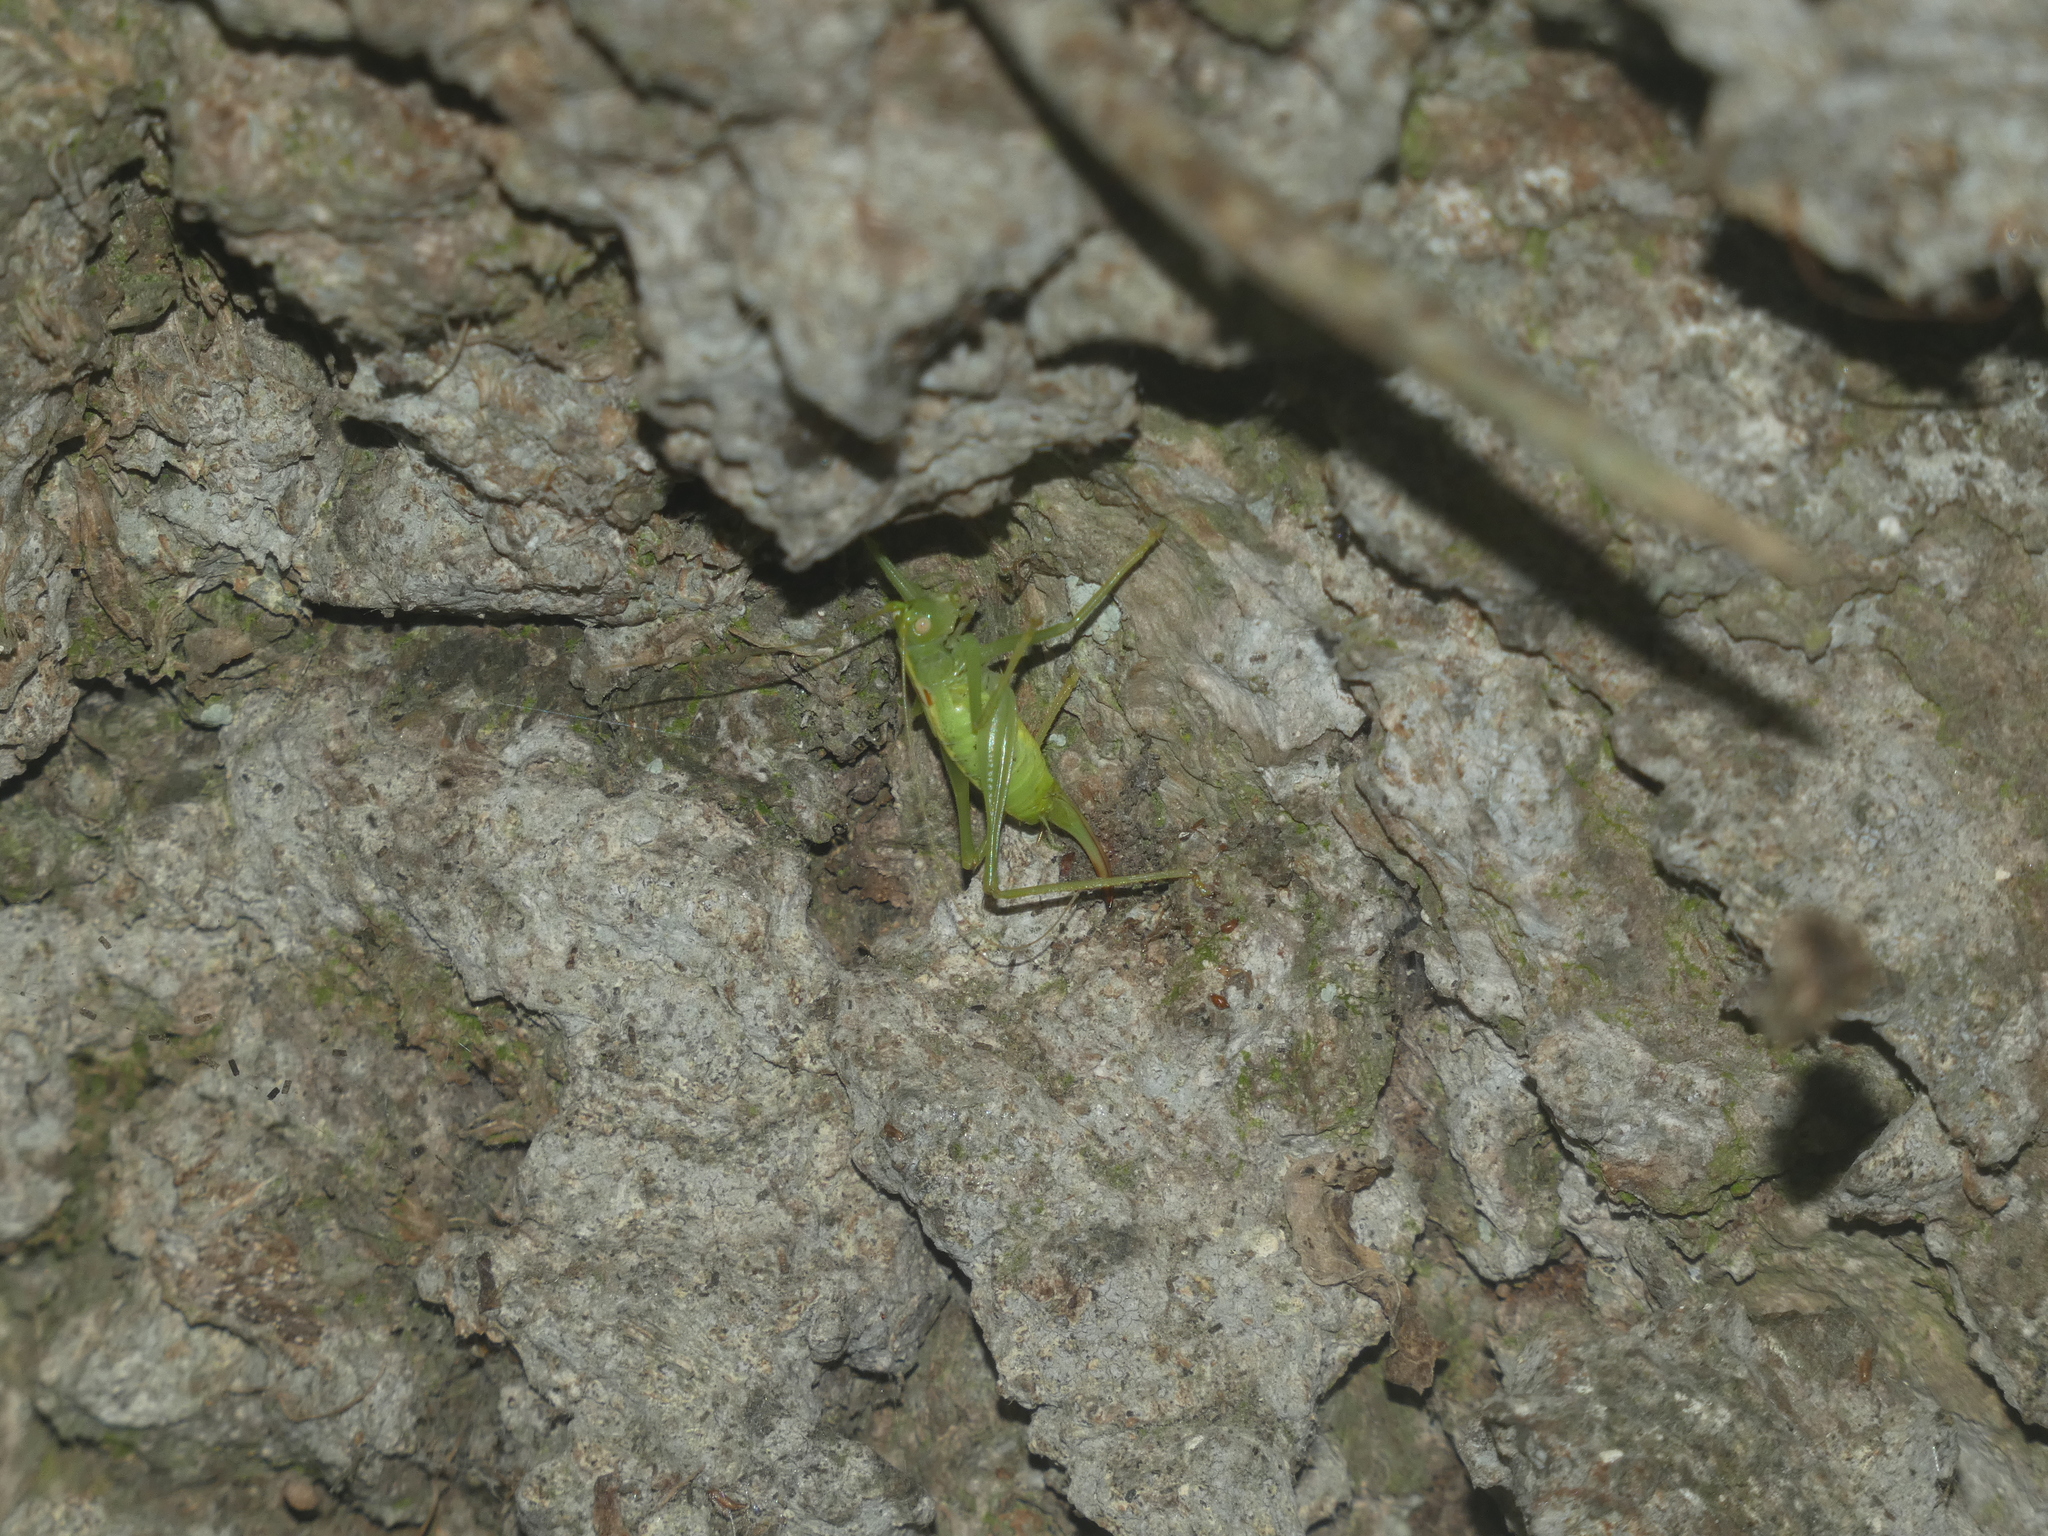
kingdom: Animalia
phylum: Arthropoda
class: Insecta
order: Orthoptera
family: Tettigoniidae
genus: Meconema
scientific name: Meconema meridionale
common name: Southern oak bush-cricket
